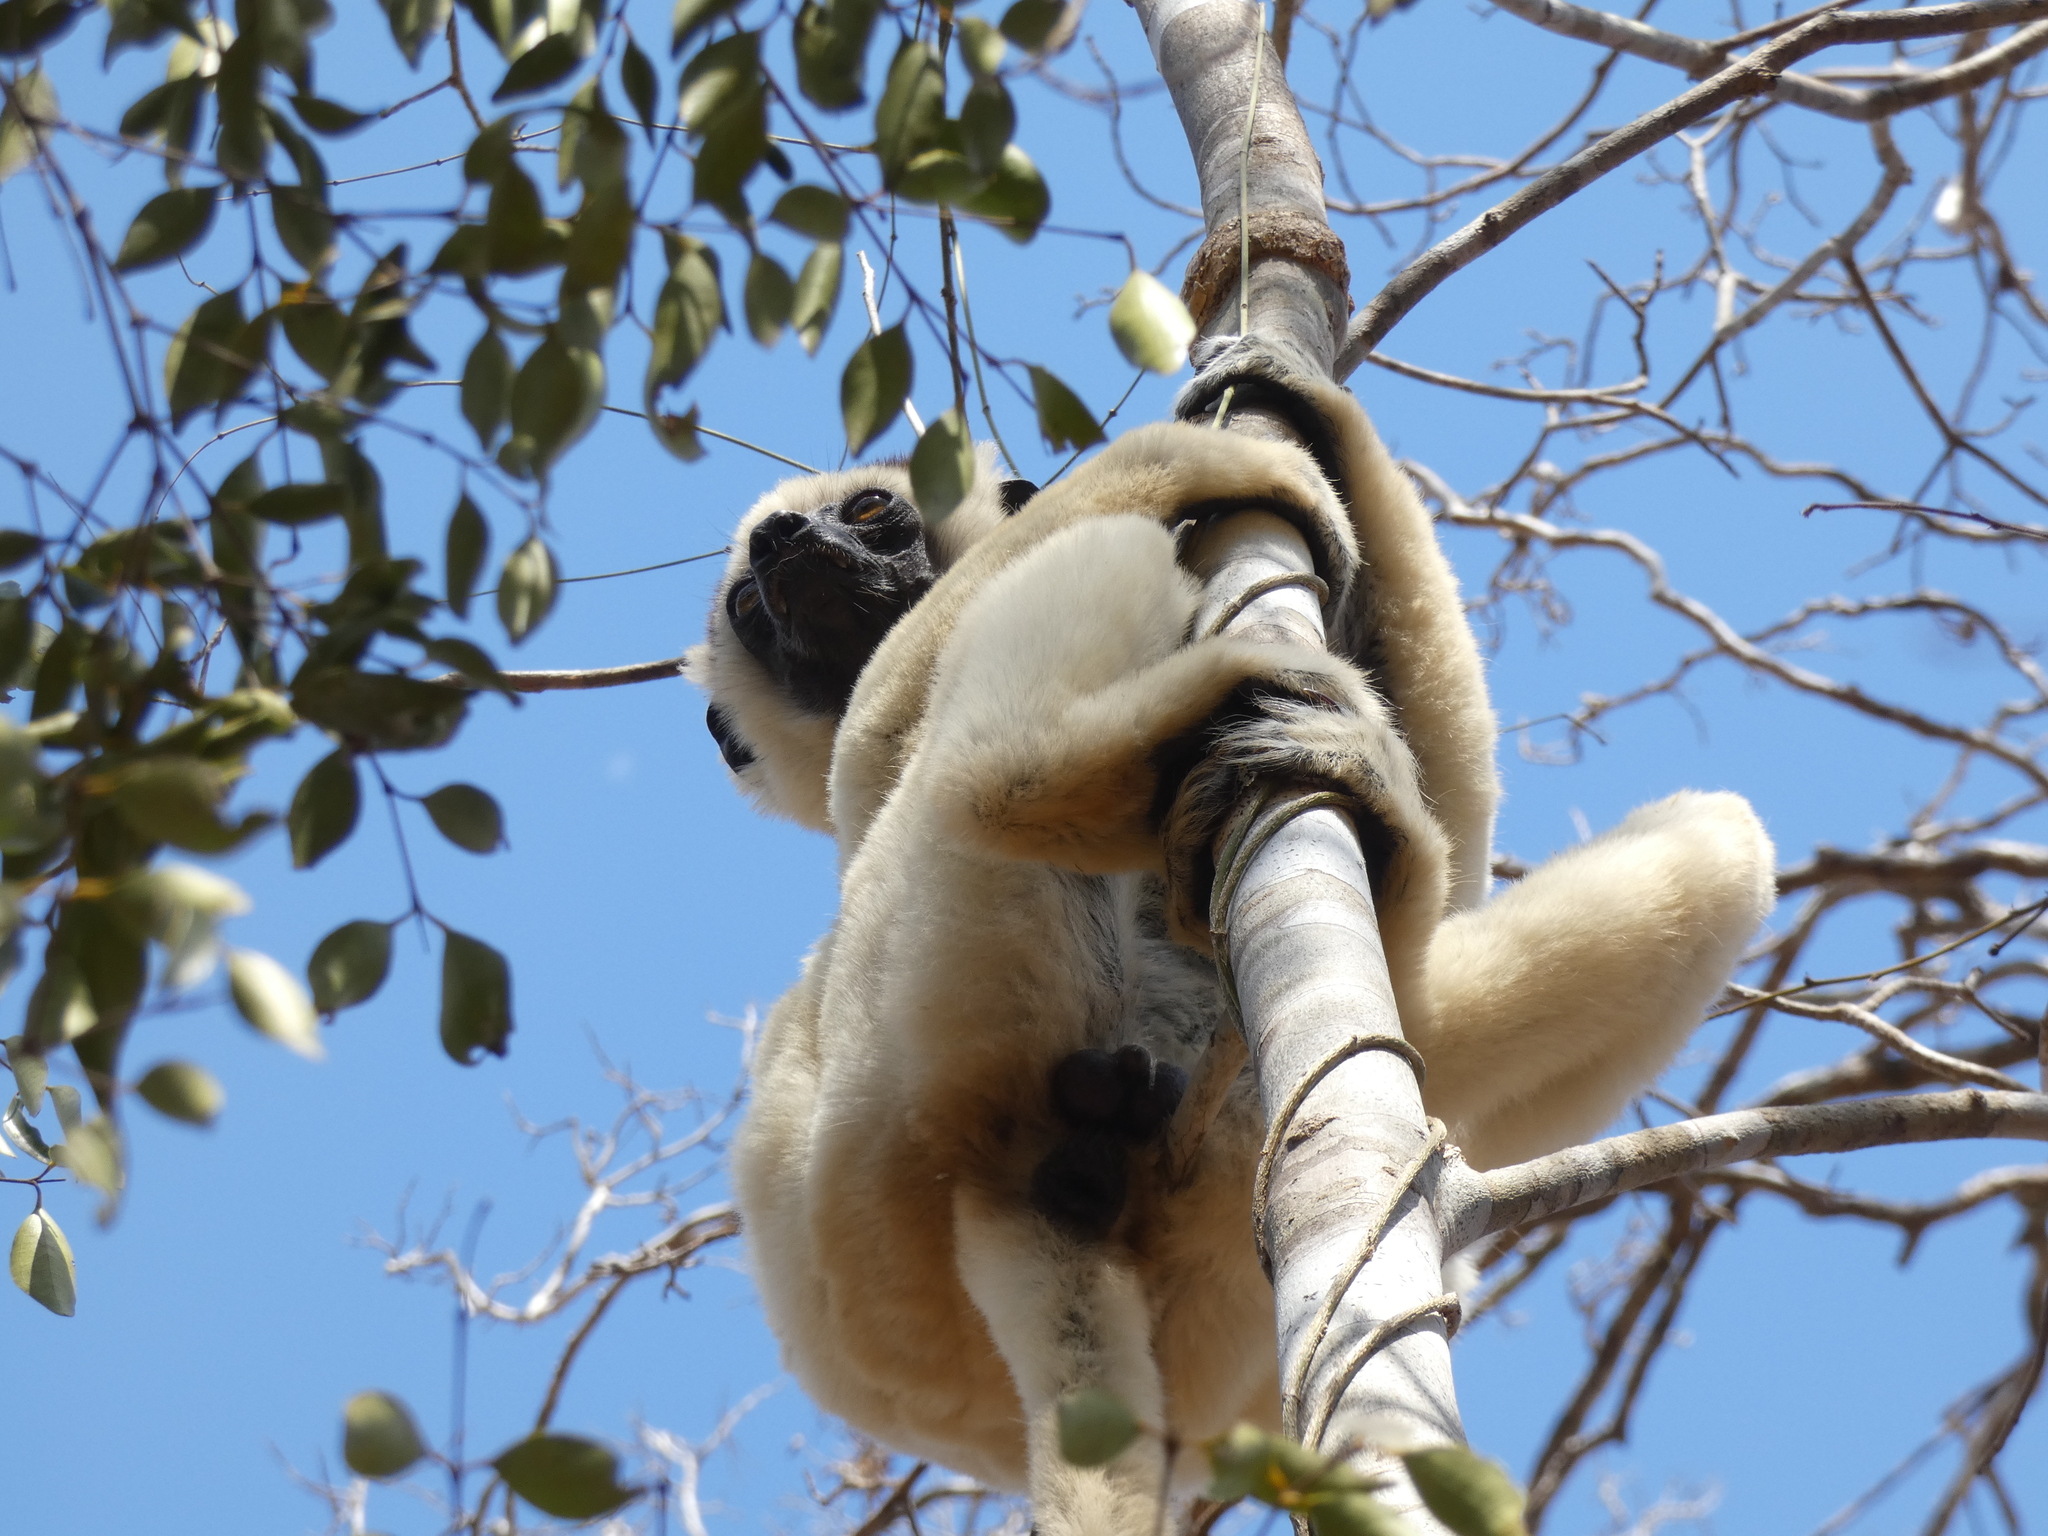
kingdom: Animalia
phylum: Chordata
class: Mammalia
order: Primates
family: Indriidae
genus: Propithecus
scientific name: Propithecus verreauxi
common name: Verreaux's sifaka
